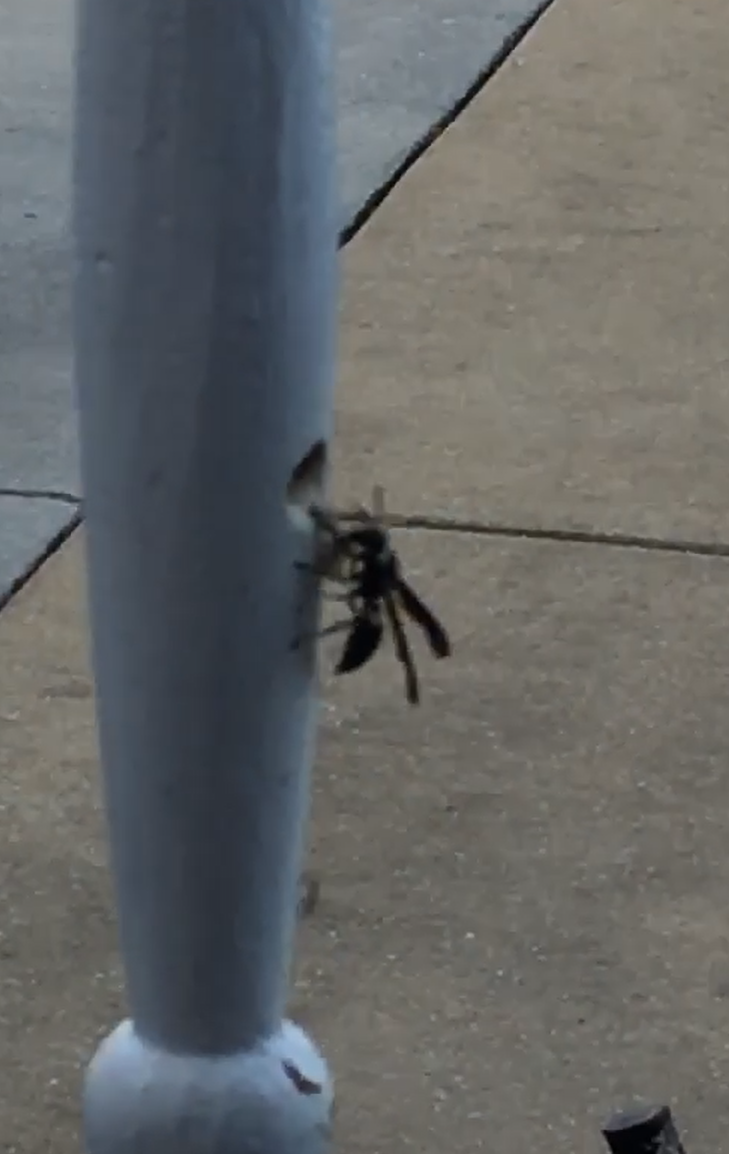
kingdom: Animalia
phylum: Arthropoda
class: Insecta
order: Hymenoptera
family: Eumenidae
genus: Monobia
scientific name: Monobia quadridens
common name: Four-toothed mason wasp
